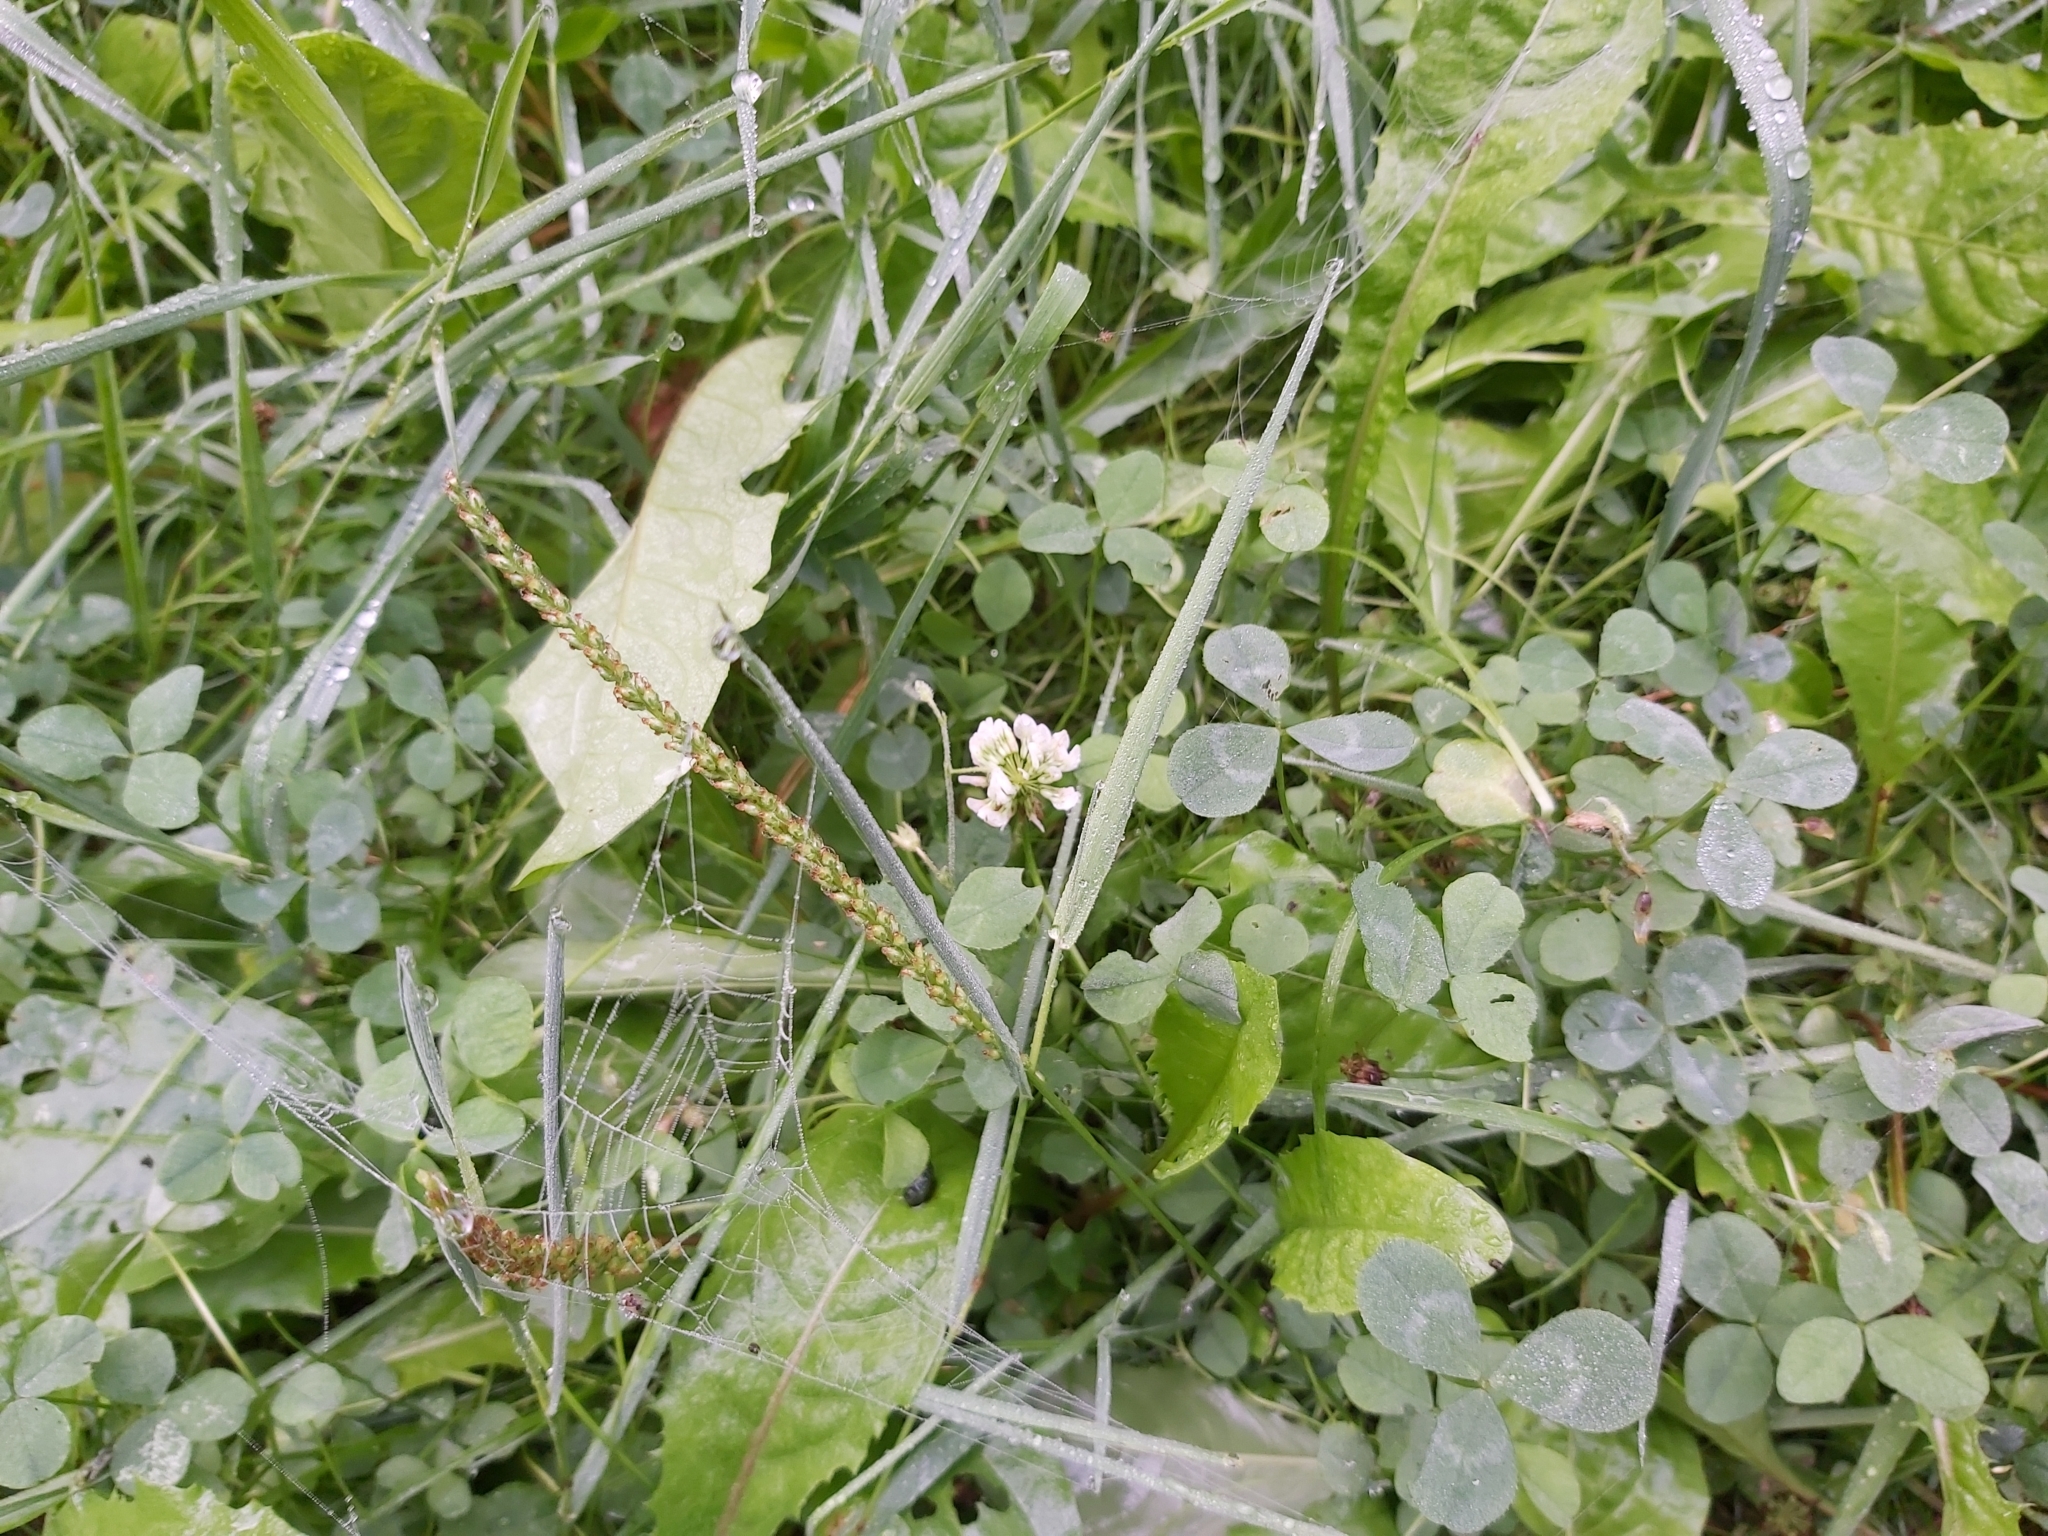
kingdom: Plantae
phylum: Tracheophyta
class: Magnoliopsida
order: Fabales
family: Fabaceae
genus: Trifolium
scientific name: Trifolium repens
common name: White clover
